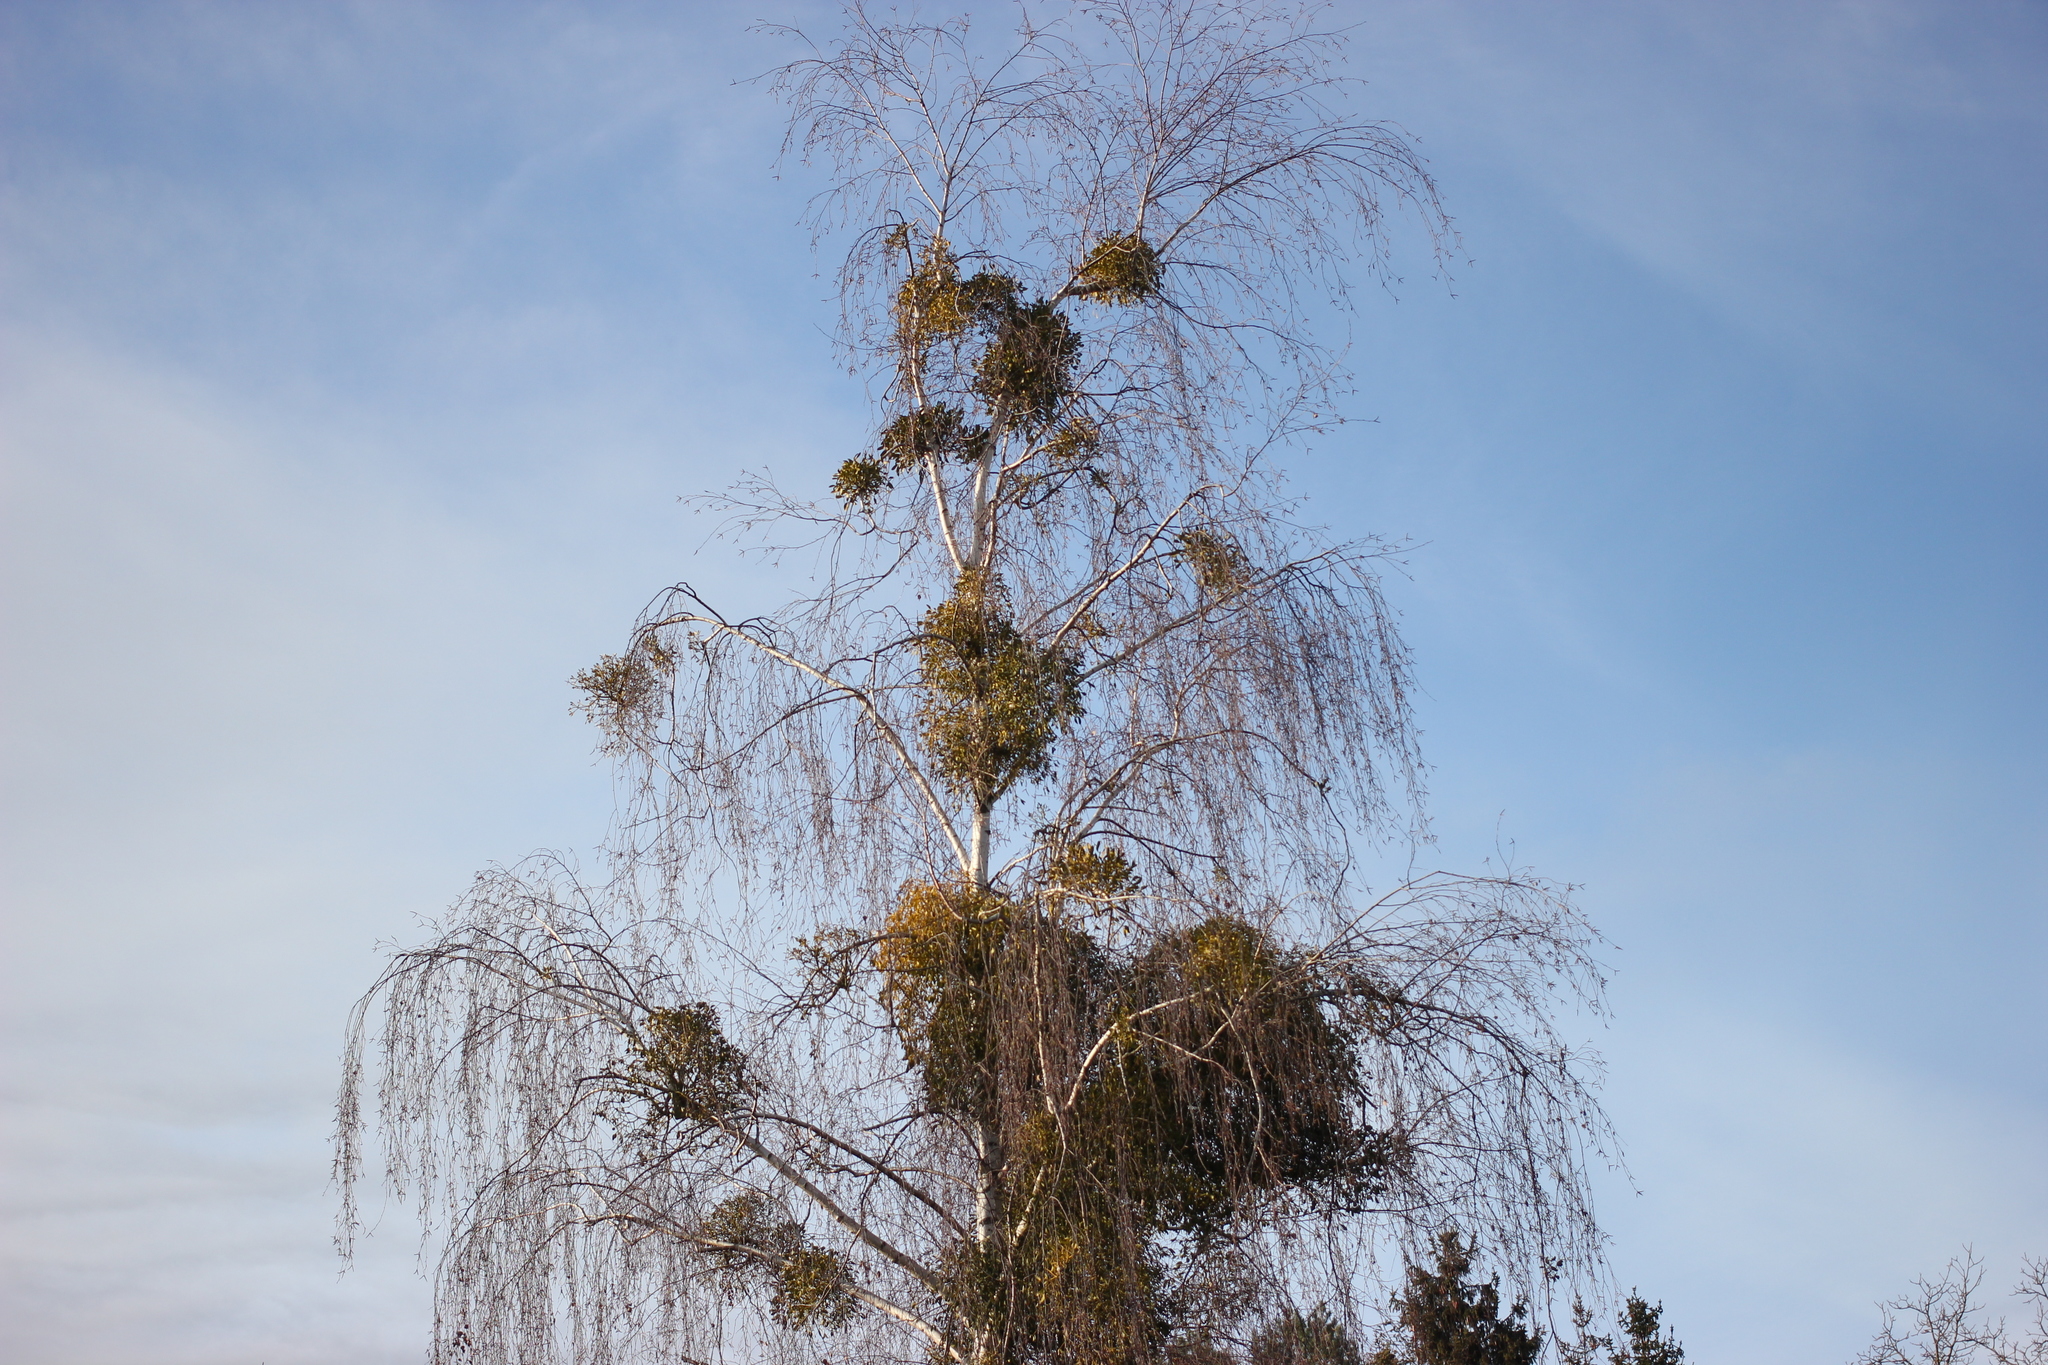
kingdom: Plantae
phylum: Tracheophyta
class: Magnoliopsida
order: Santalales
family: Viscaceae
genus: Viscum
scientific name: Viscum album
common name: Mistletoe
